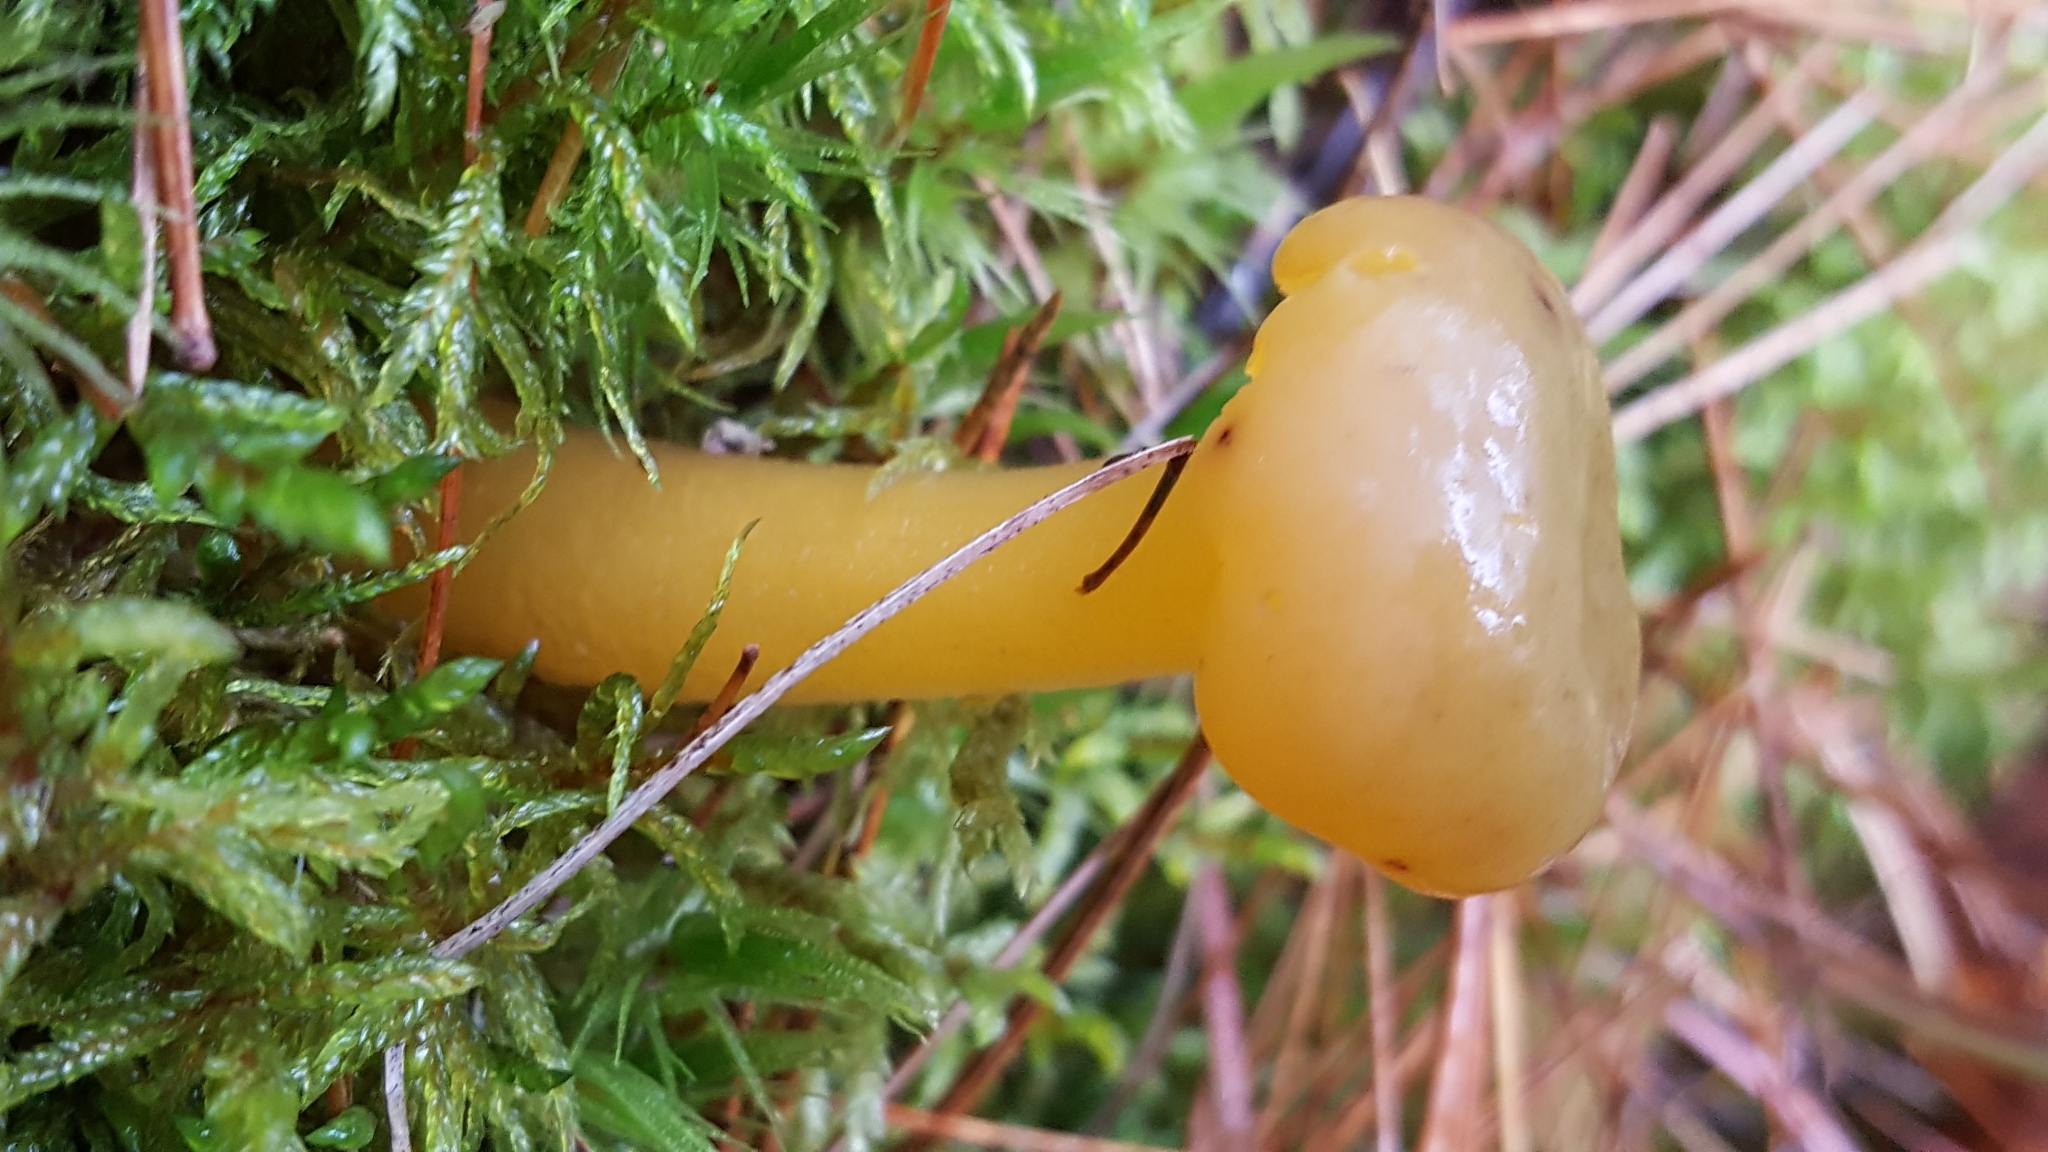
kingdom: Fungi
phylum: Ascomycota
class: Leotiomycetes
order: Leotiales
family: Leotiaceae
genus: Leotia
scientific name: Leotia lubrica
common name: Jellybaby
